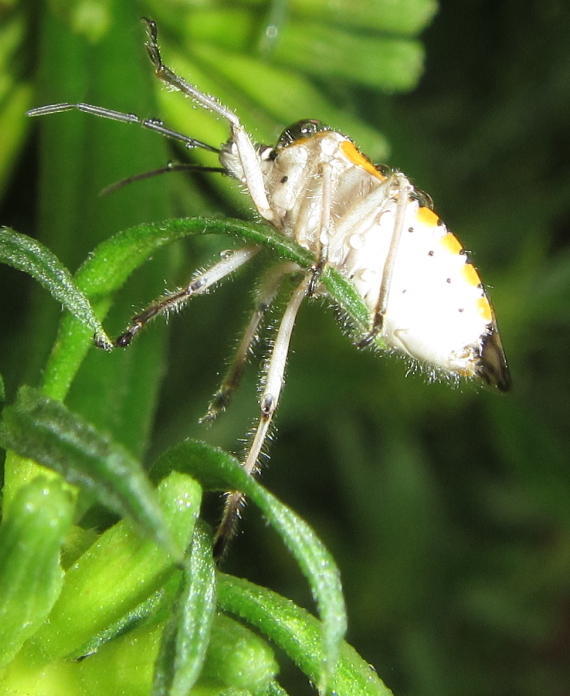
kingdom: Animalia
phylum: Arthropoda
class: Insecta
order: Hemiptera
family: Pentatomidae
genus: Agonoscelis
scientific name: Agonoscelis versicoloratus
